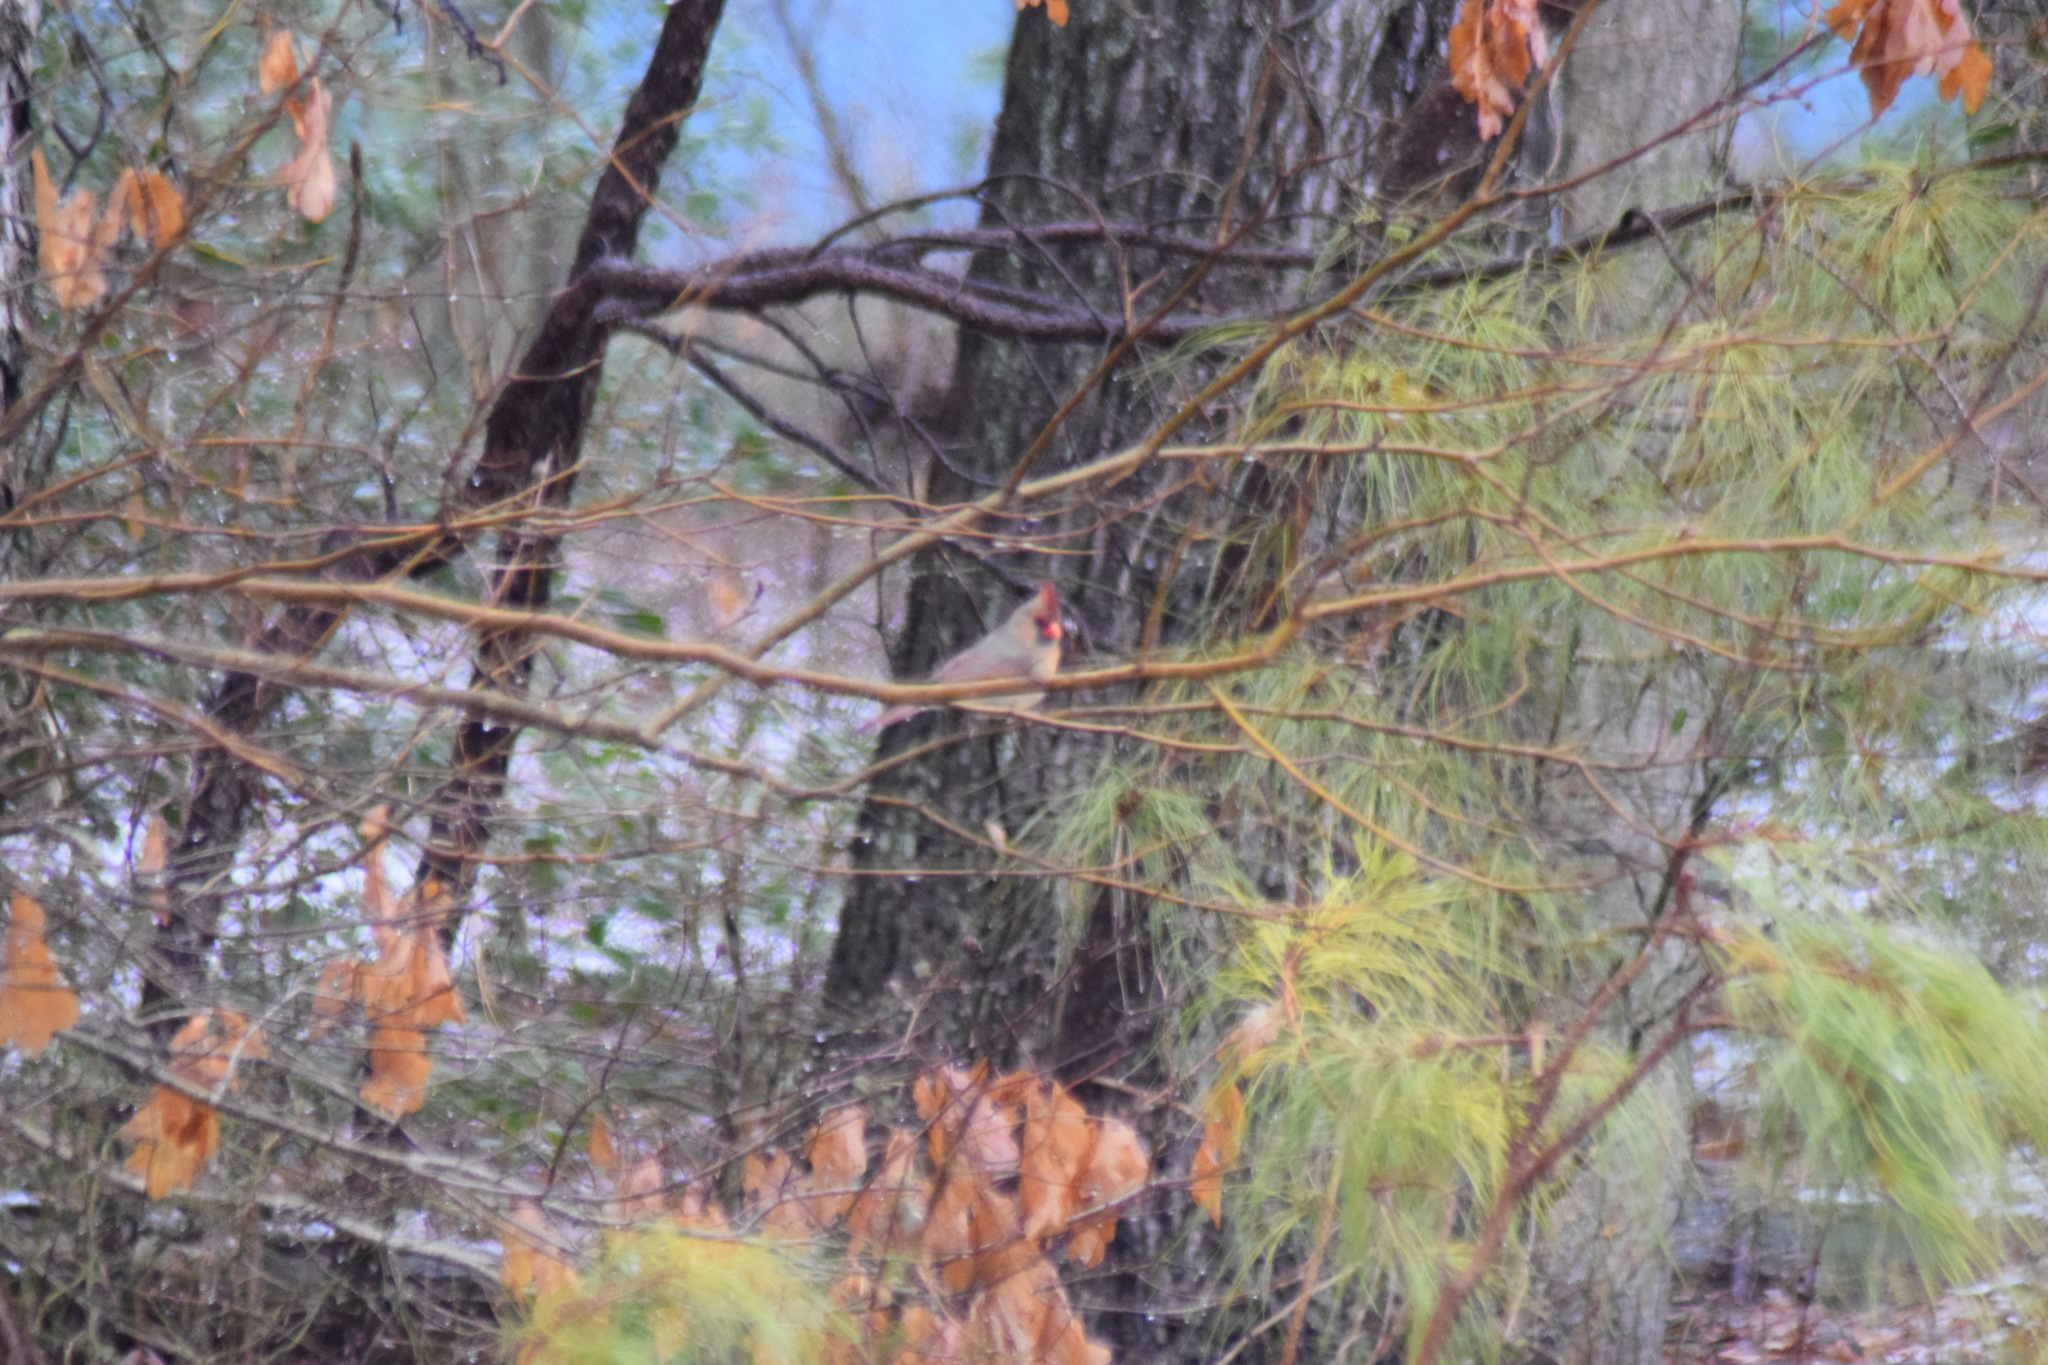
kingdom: Animalia
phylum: Chordata
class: Aves
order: Passeriformes
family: Cardinalidae
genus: Cardinalis
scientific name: Cardinalis cardinalis
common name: Northern cardinal
